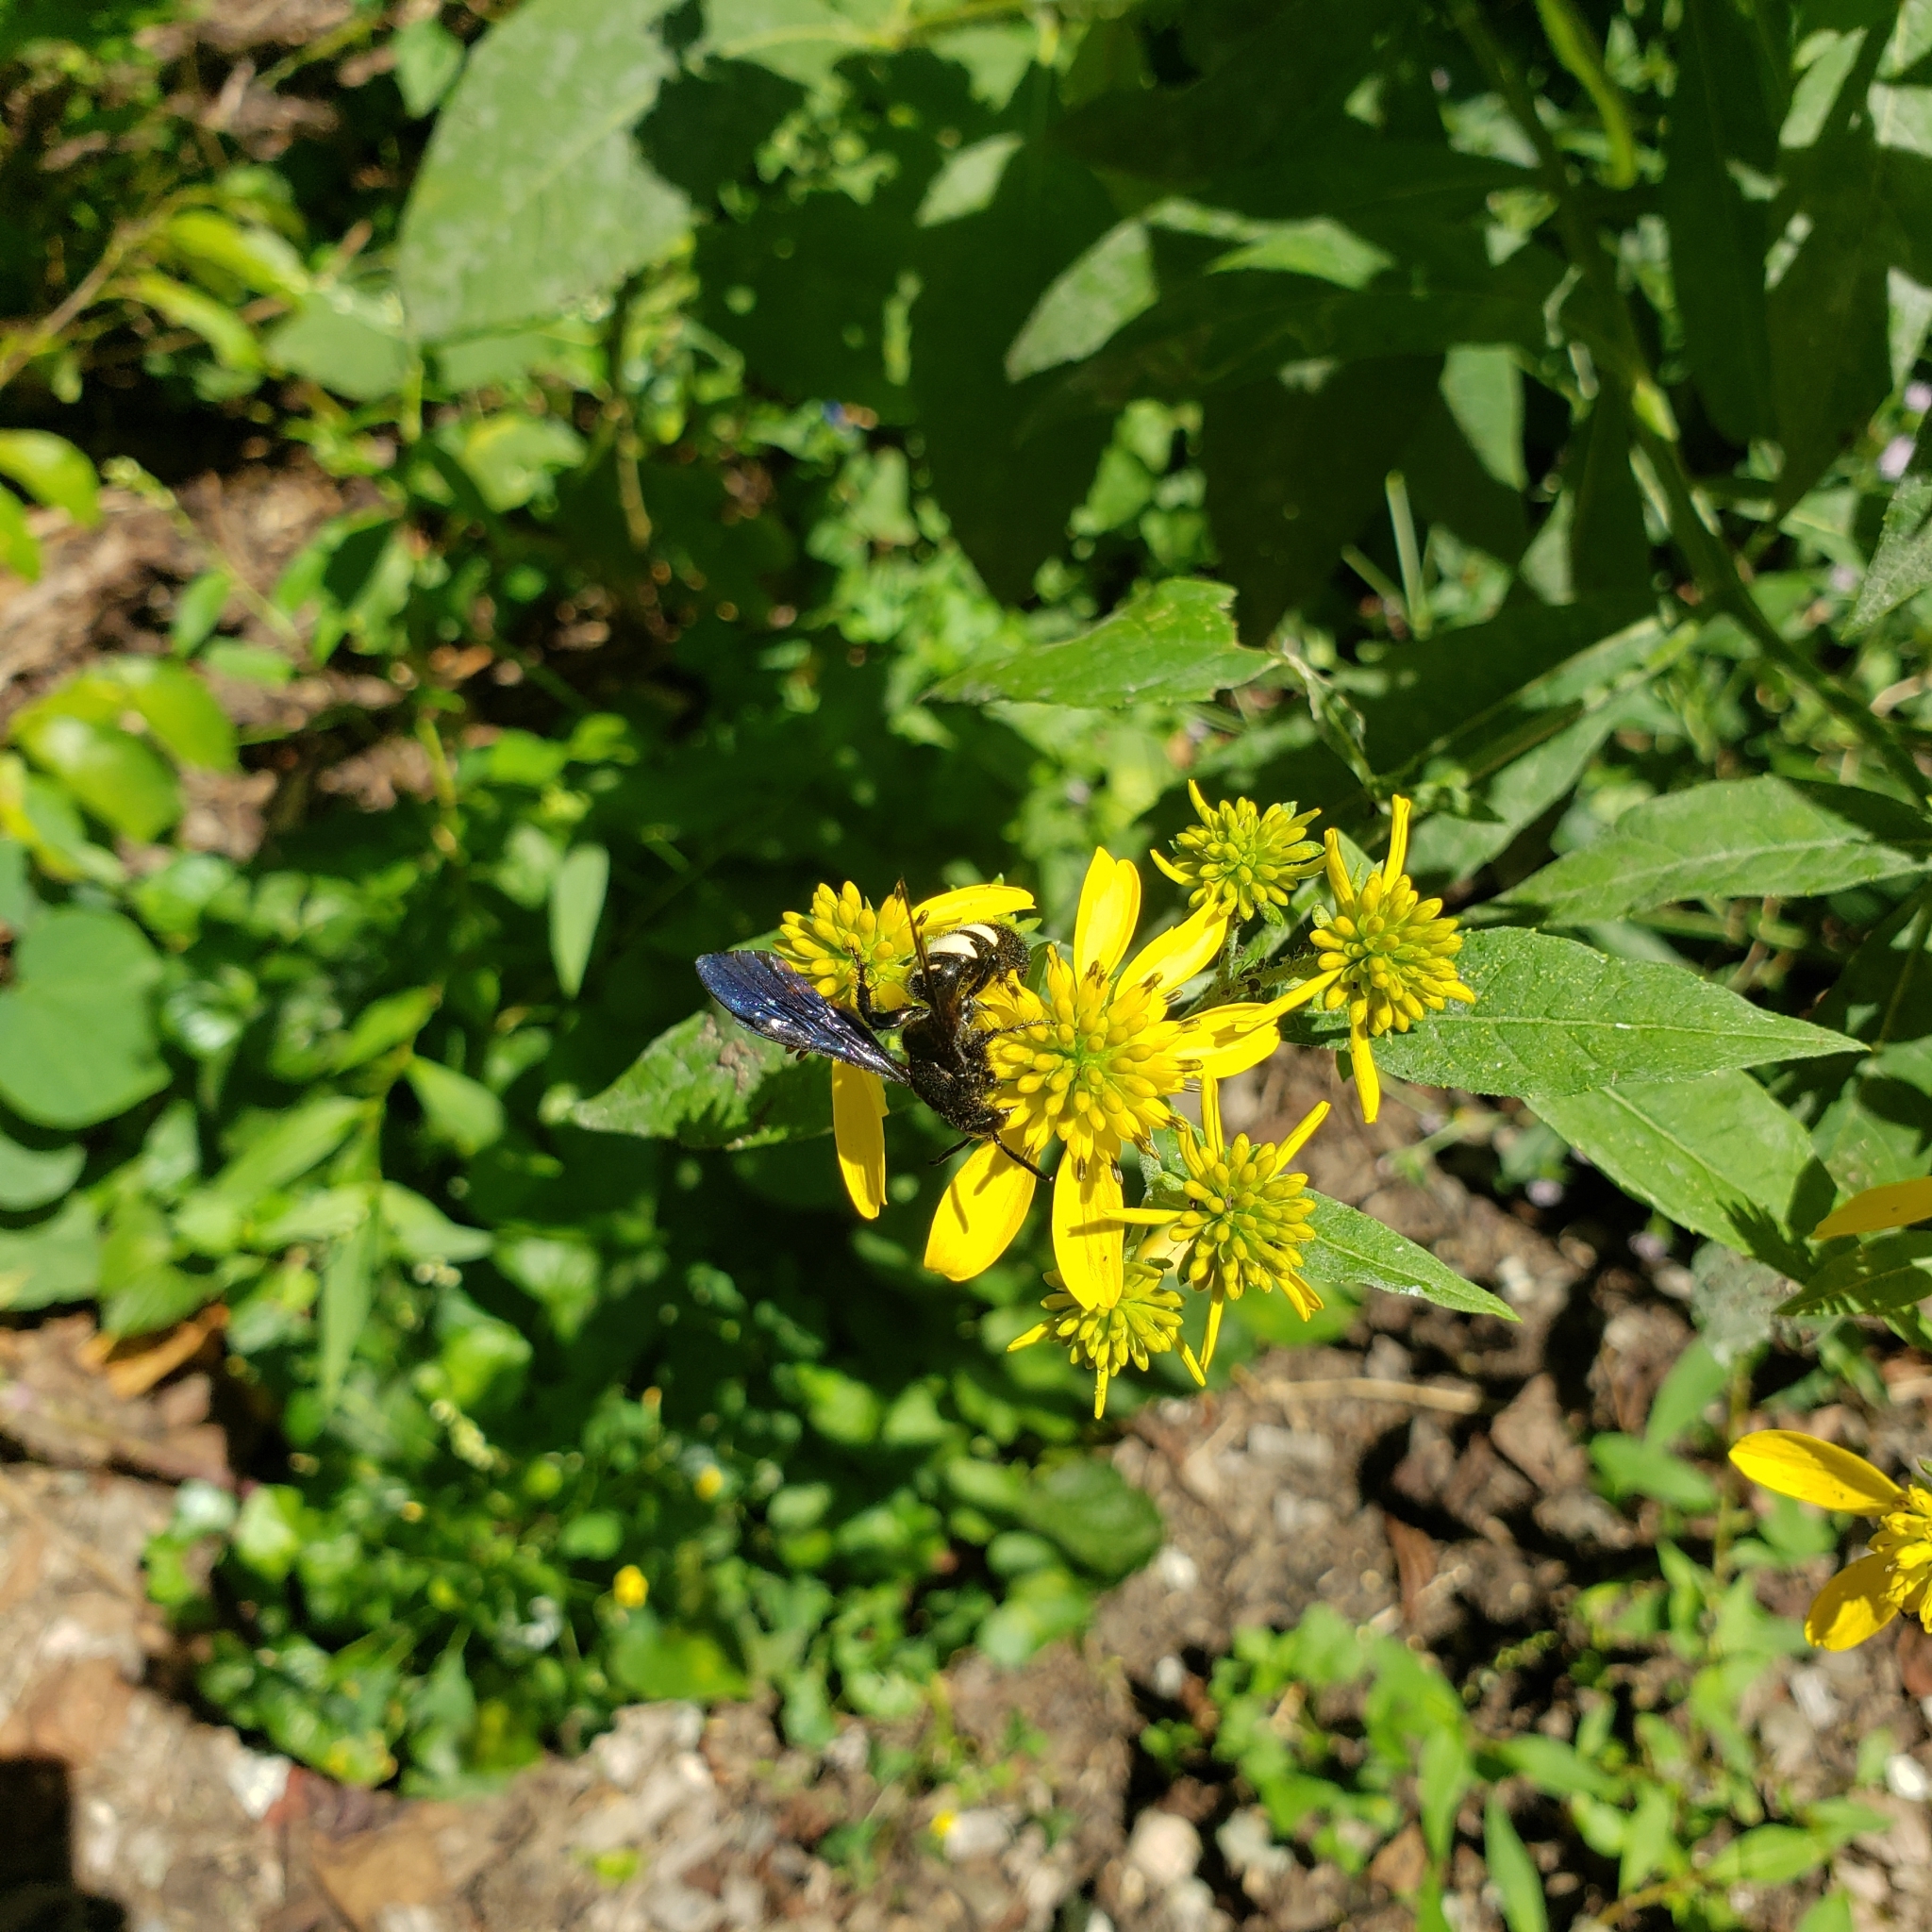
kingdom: Animalia
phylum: Arthropoda
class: Insecta
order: Hymenoptera
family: Scoliidae
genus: Scolia
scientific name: Scolia bicincta
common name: Double-banded scoliid wasp
